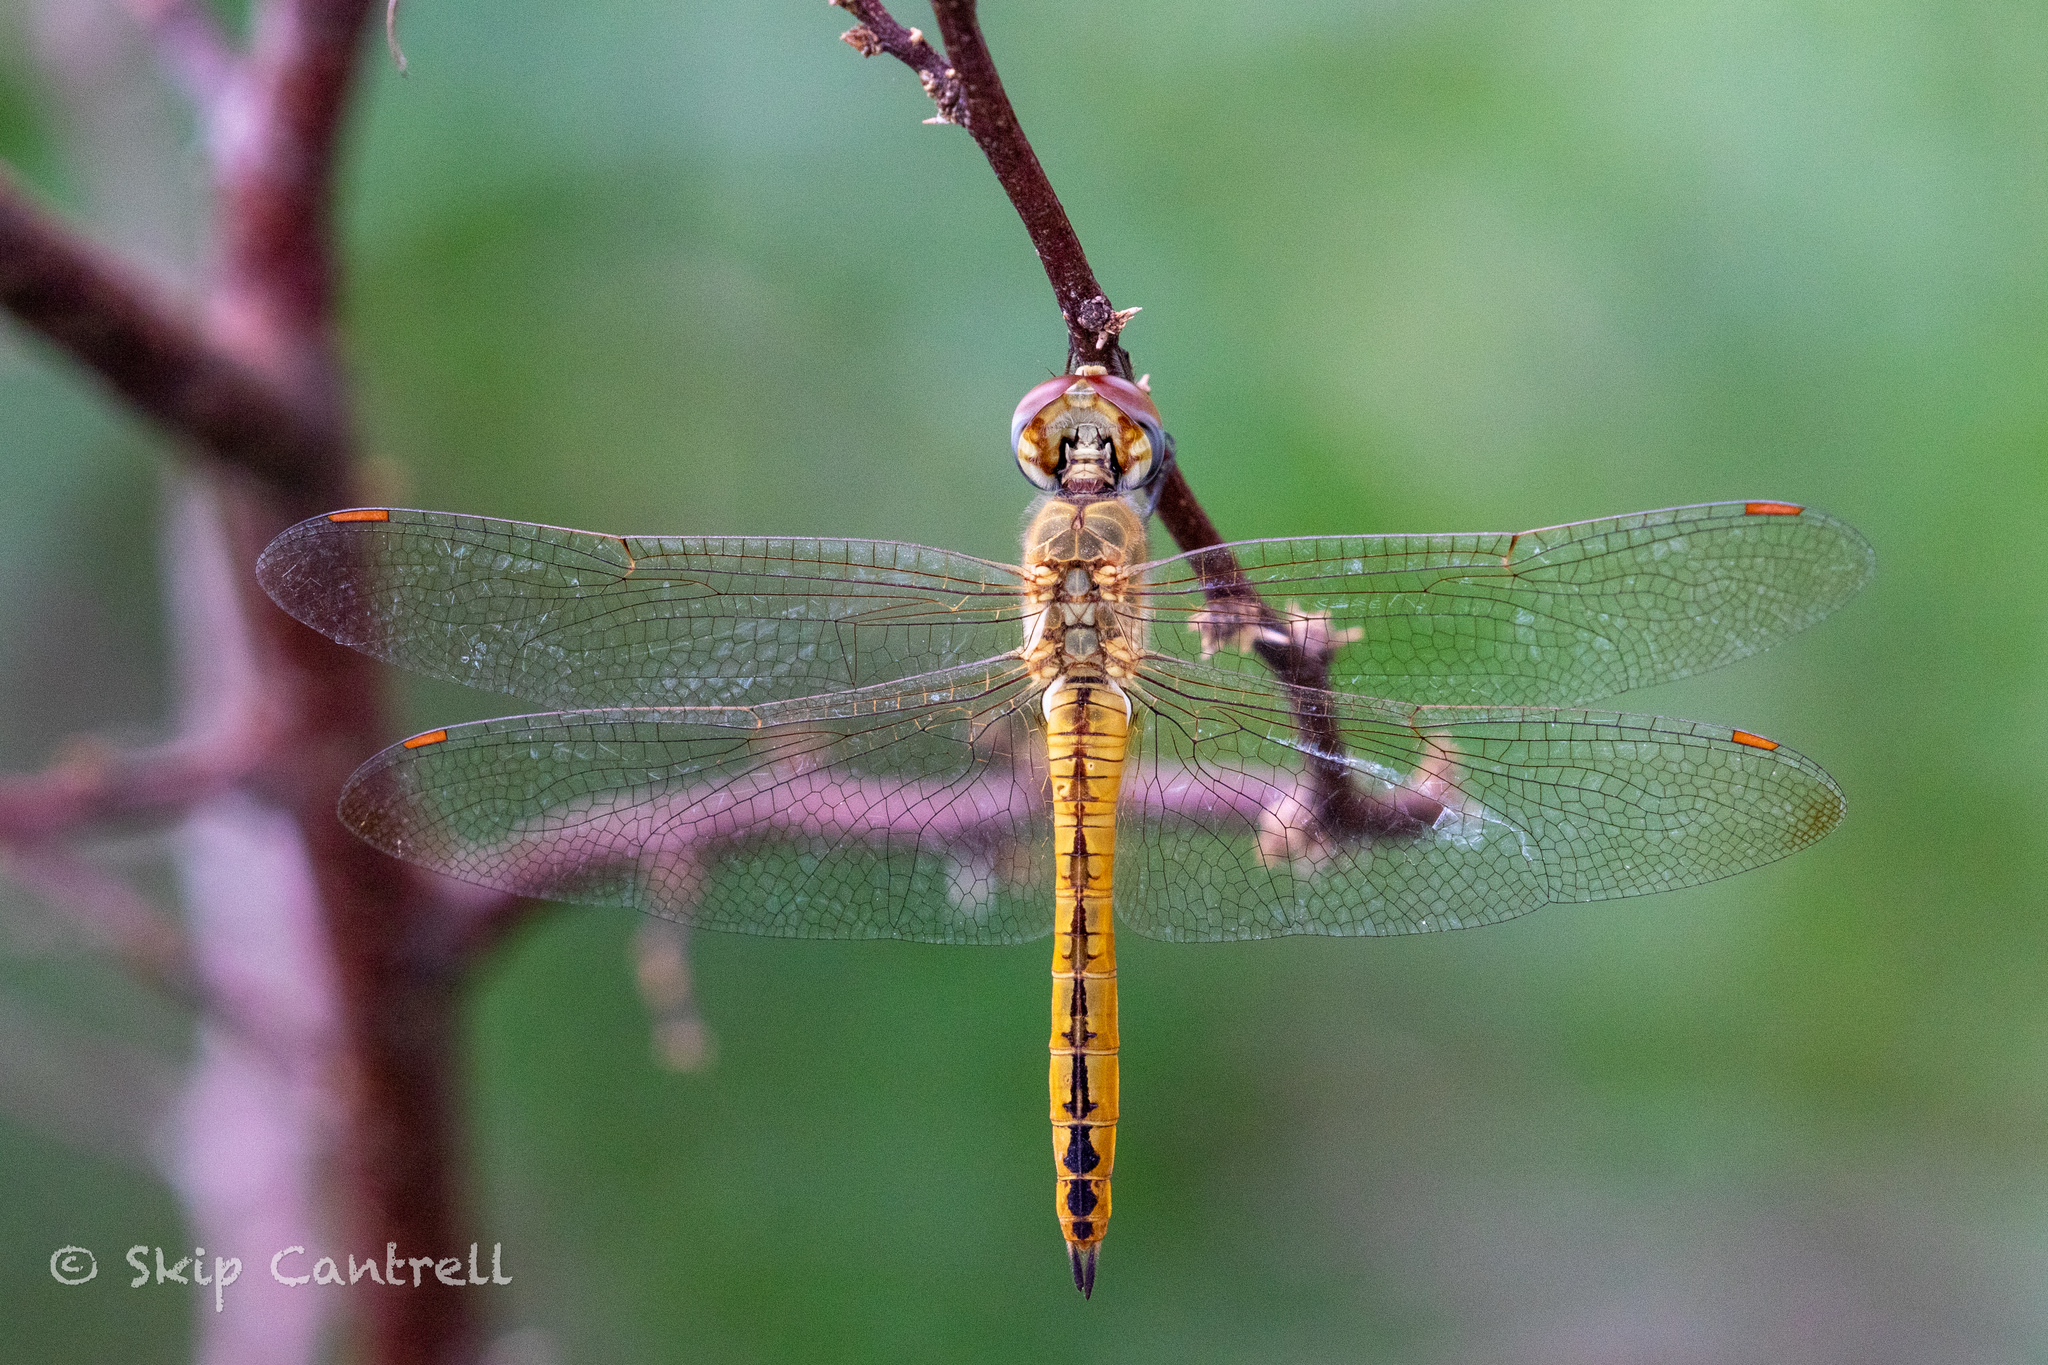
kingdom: Animalia
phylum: Arthropoda
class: Insecta
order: Odonata
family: Libellulidae
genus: Pantala
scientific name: Pantala flavescens
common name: Wandering glider
